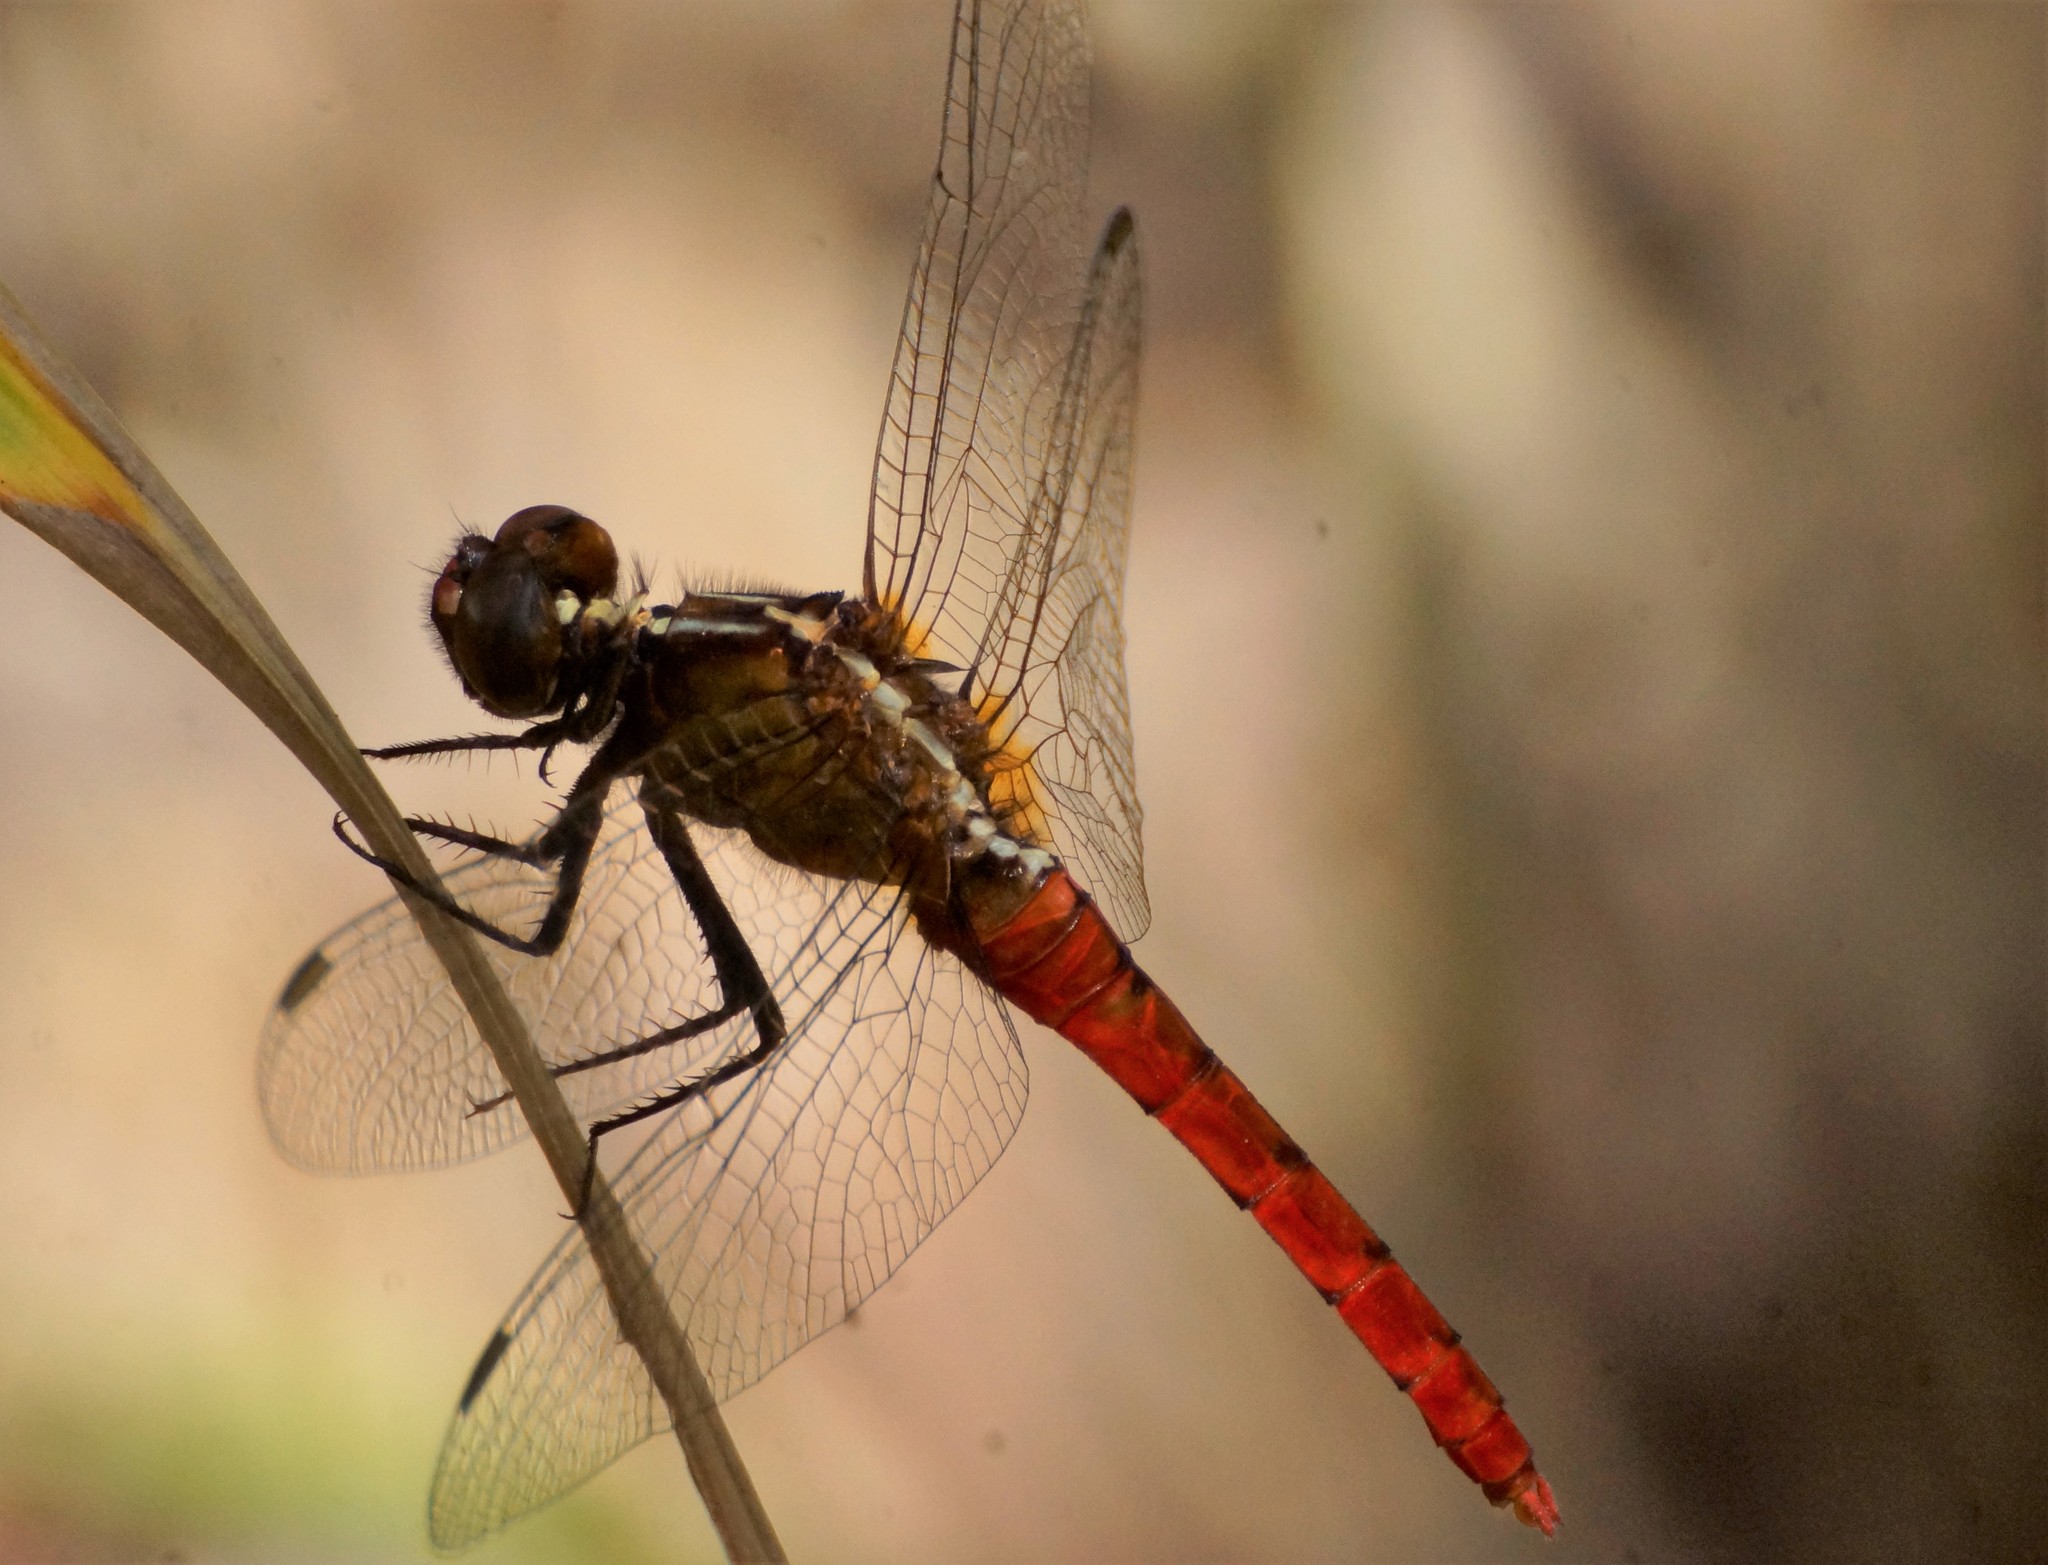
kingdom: Animalia
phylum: Arthropoda
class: Insecta
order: Odonata
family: Libellulidae
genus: Rhodothemis
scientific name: Rhodothemis lieftincki
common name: Red arrow
